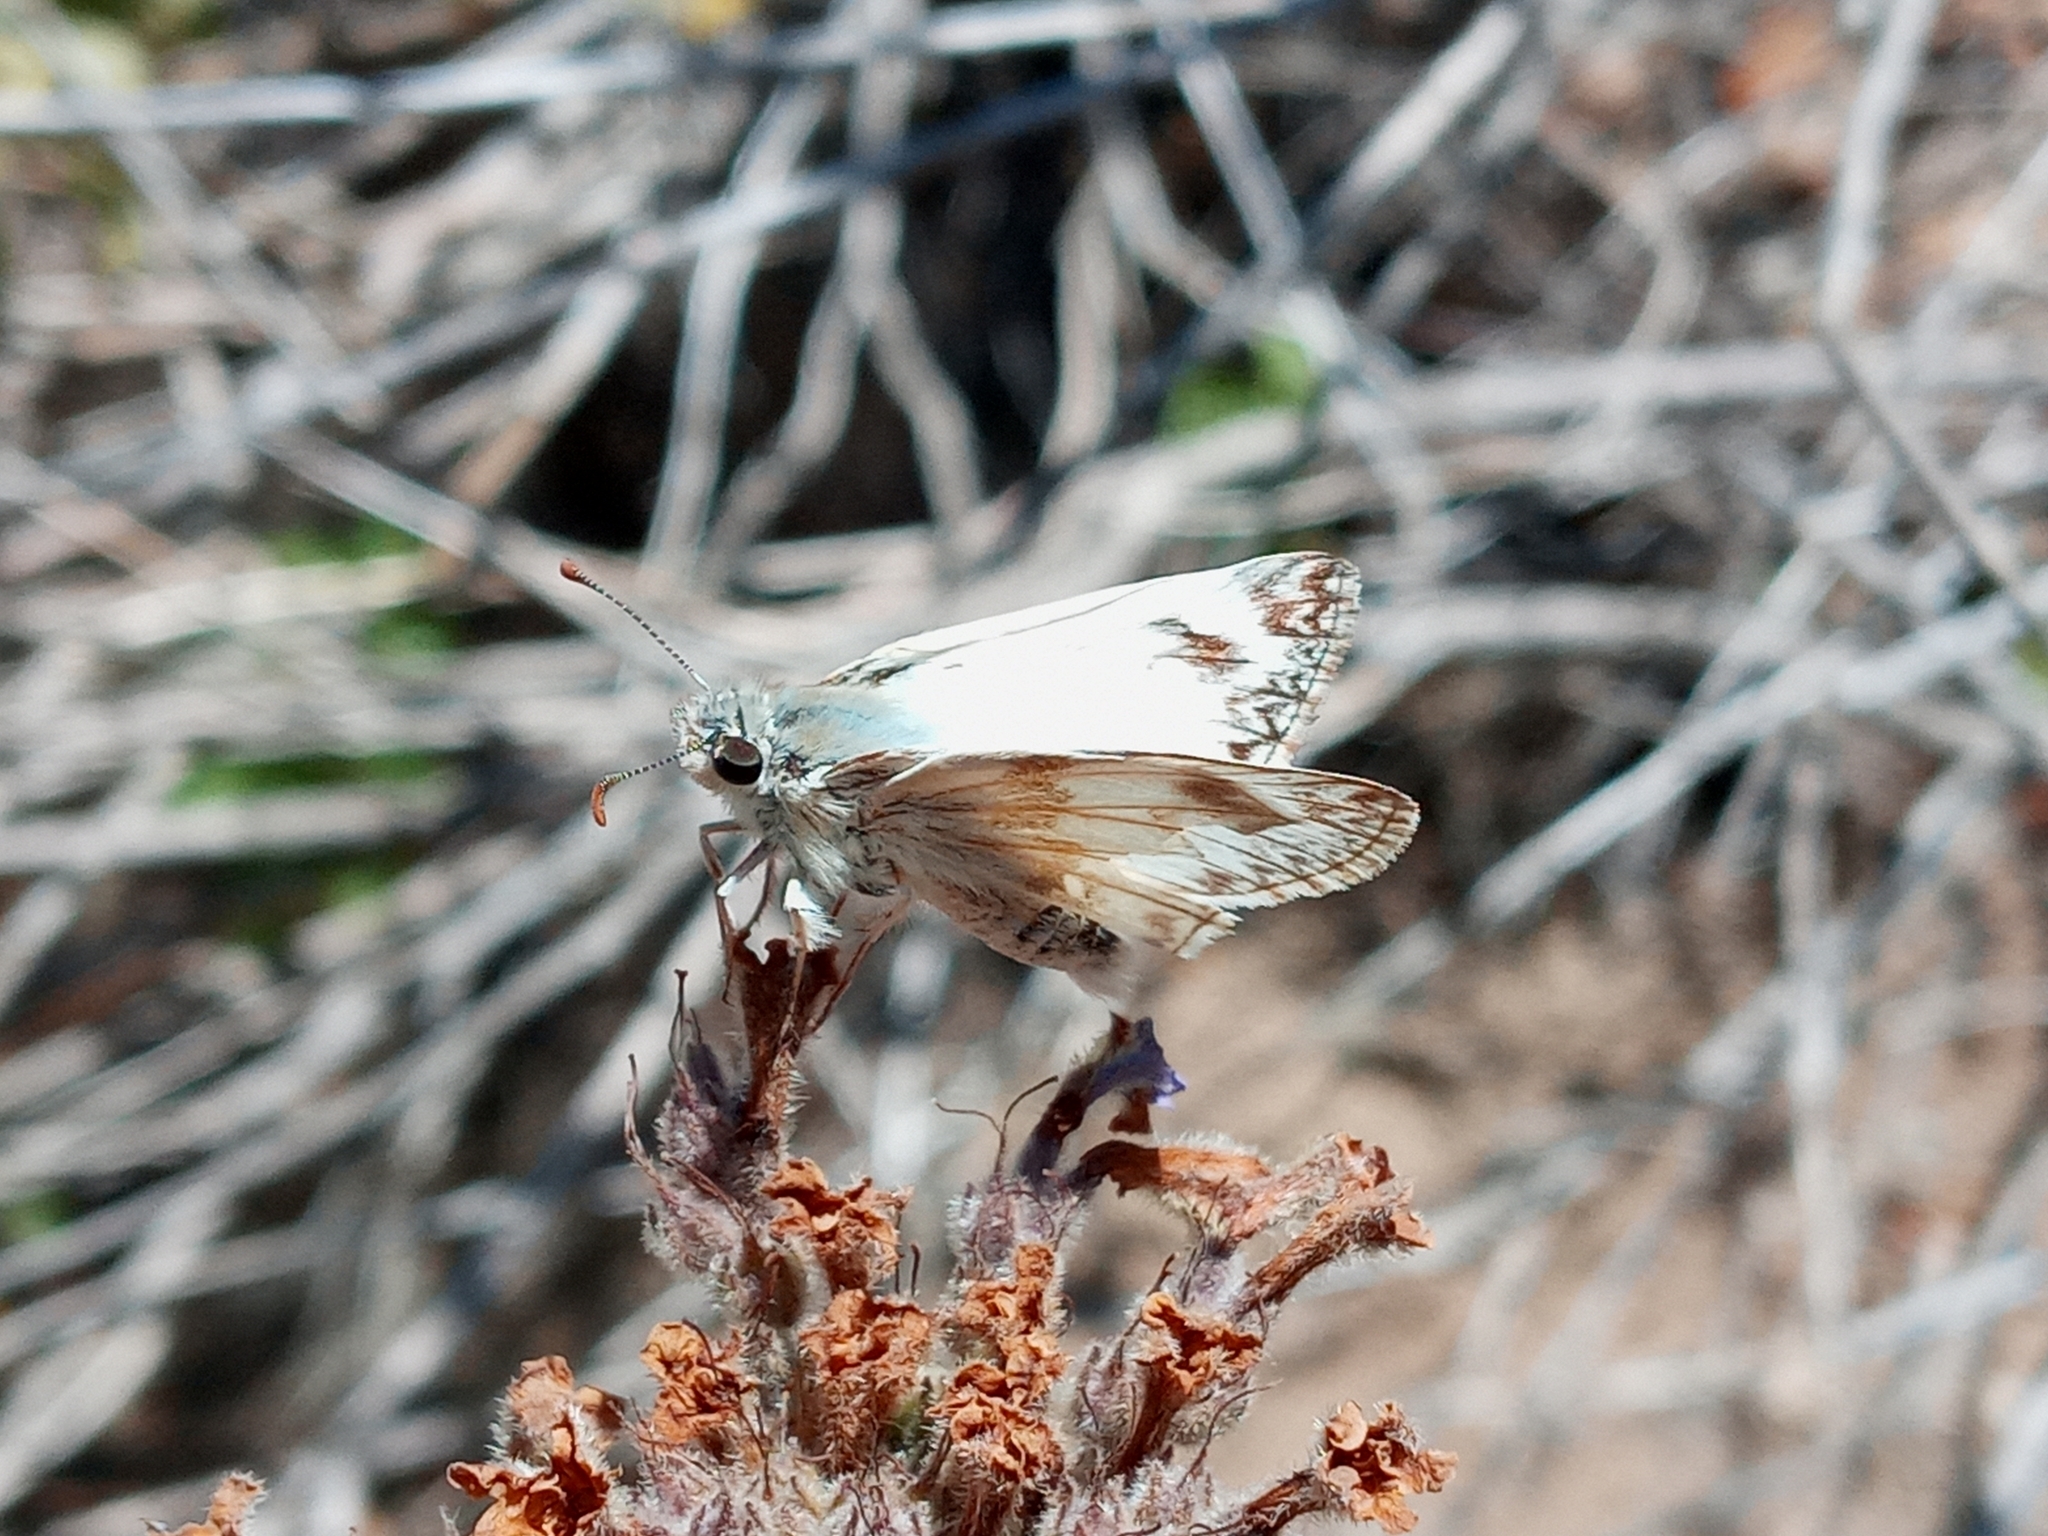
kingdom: Animalia
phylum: Arthropoda
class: Insecta
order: Lepidoptera
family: Hesperiidae
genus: Heliopetes
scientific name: Heliopetes ericetorum
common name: Northern white-skipper
